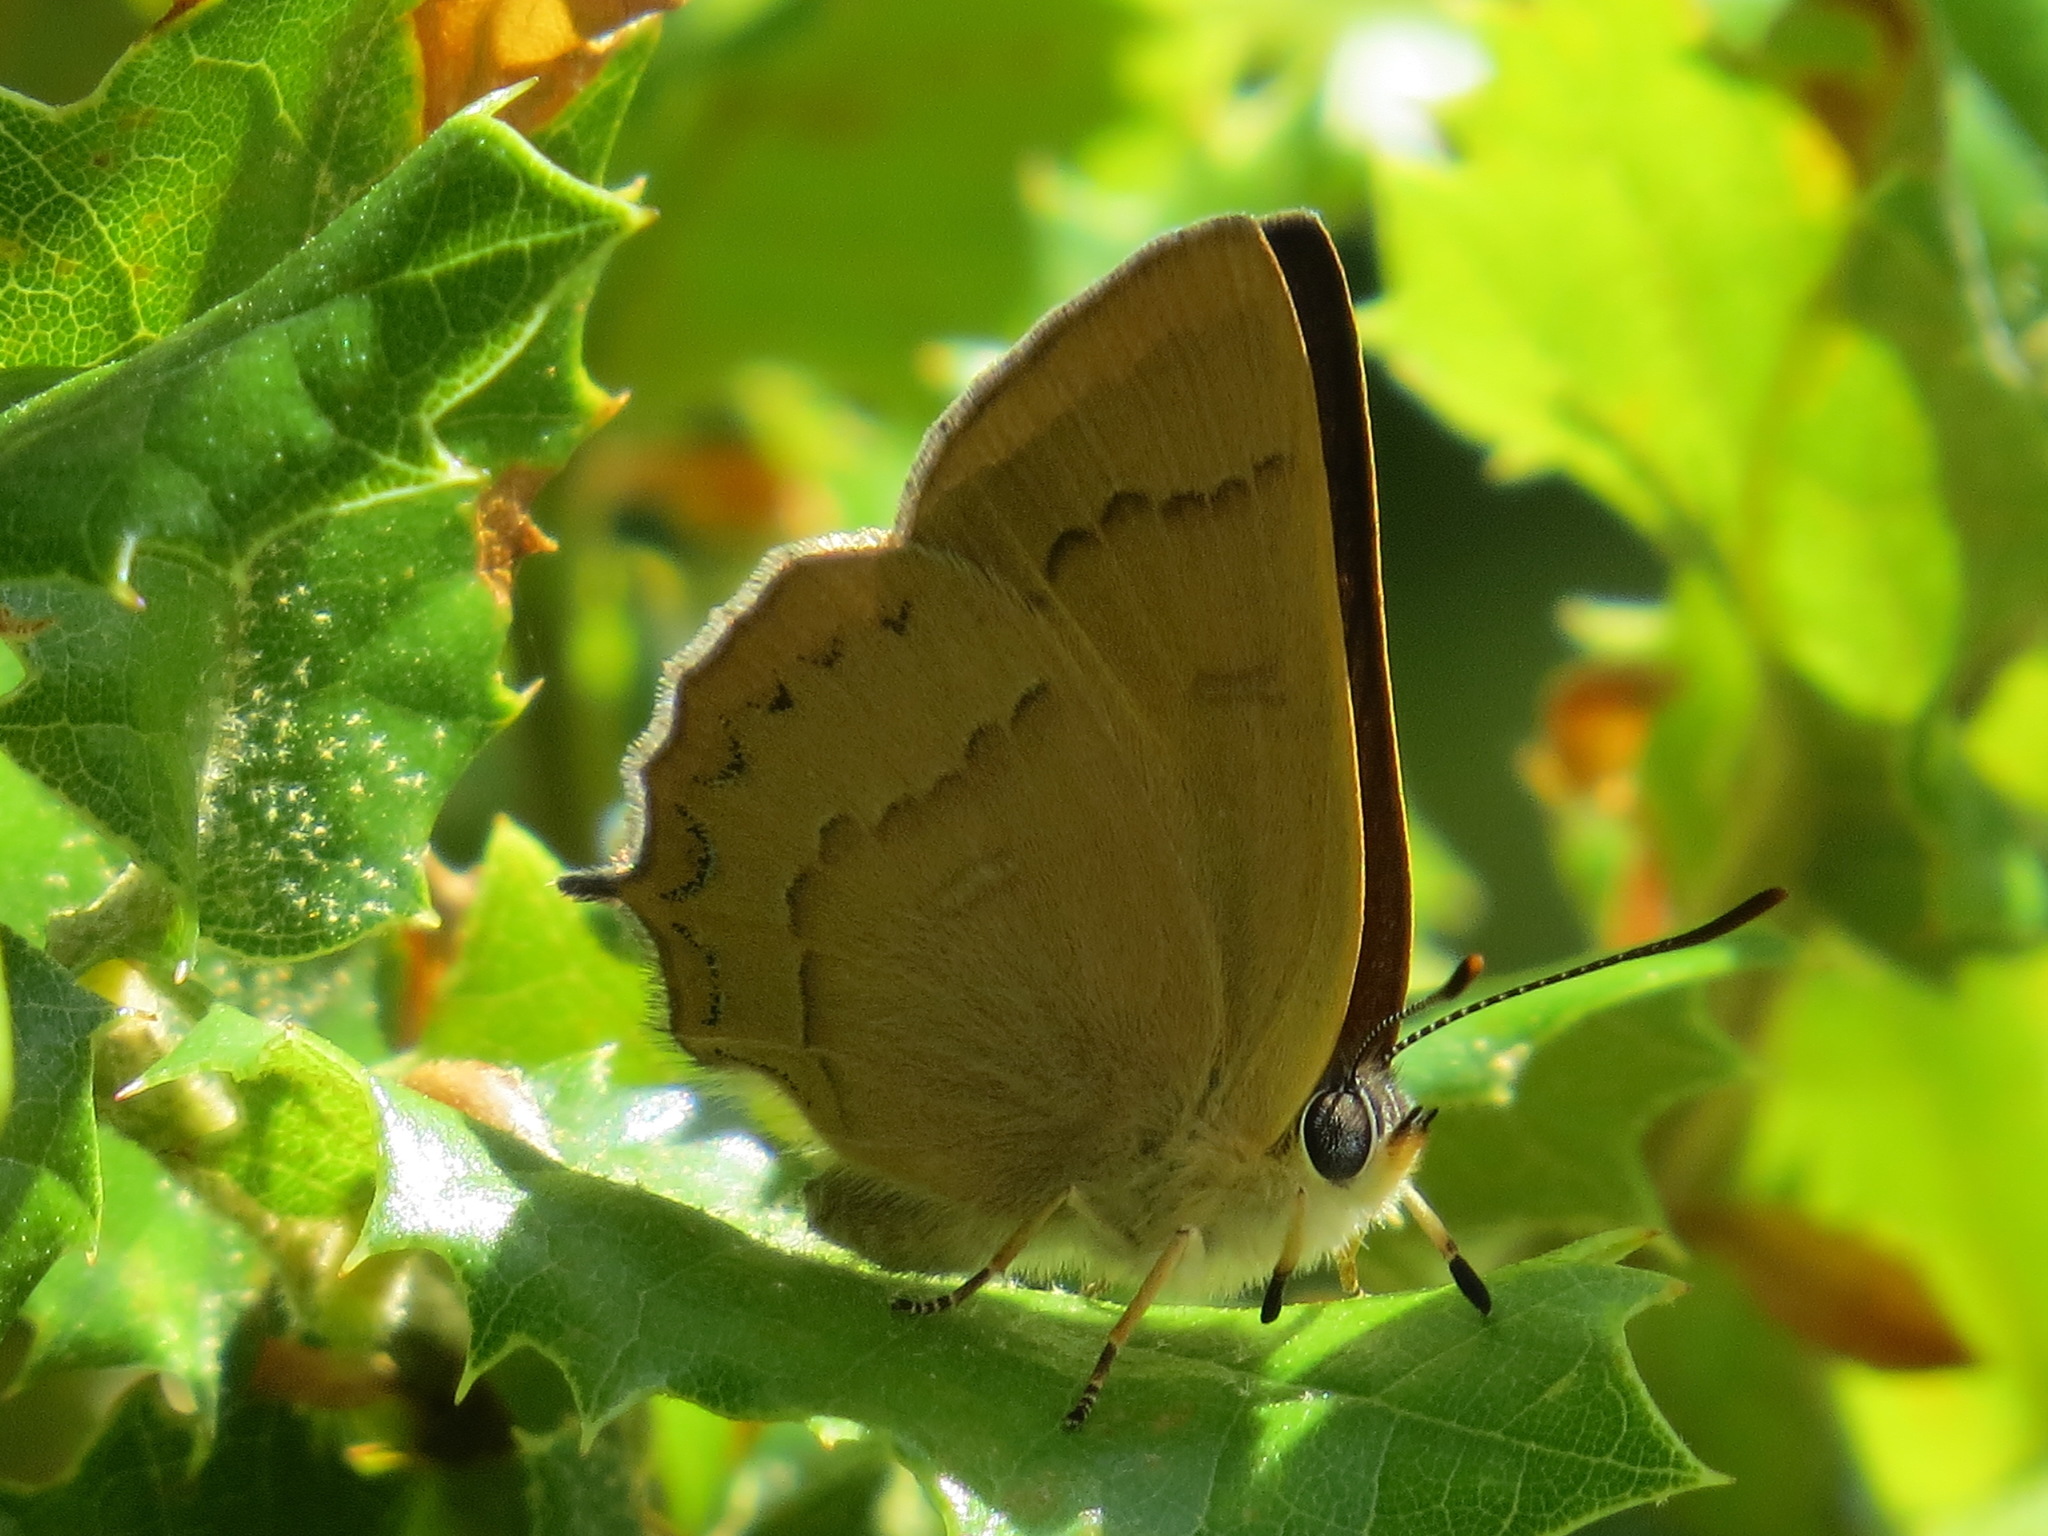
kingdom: Animalia
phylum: Arthropoda
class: Insecta
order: Lepidoptera
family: Lycaenidae
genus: Habrodais
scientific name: Habrodais grunus
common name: Golden hairstreak
